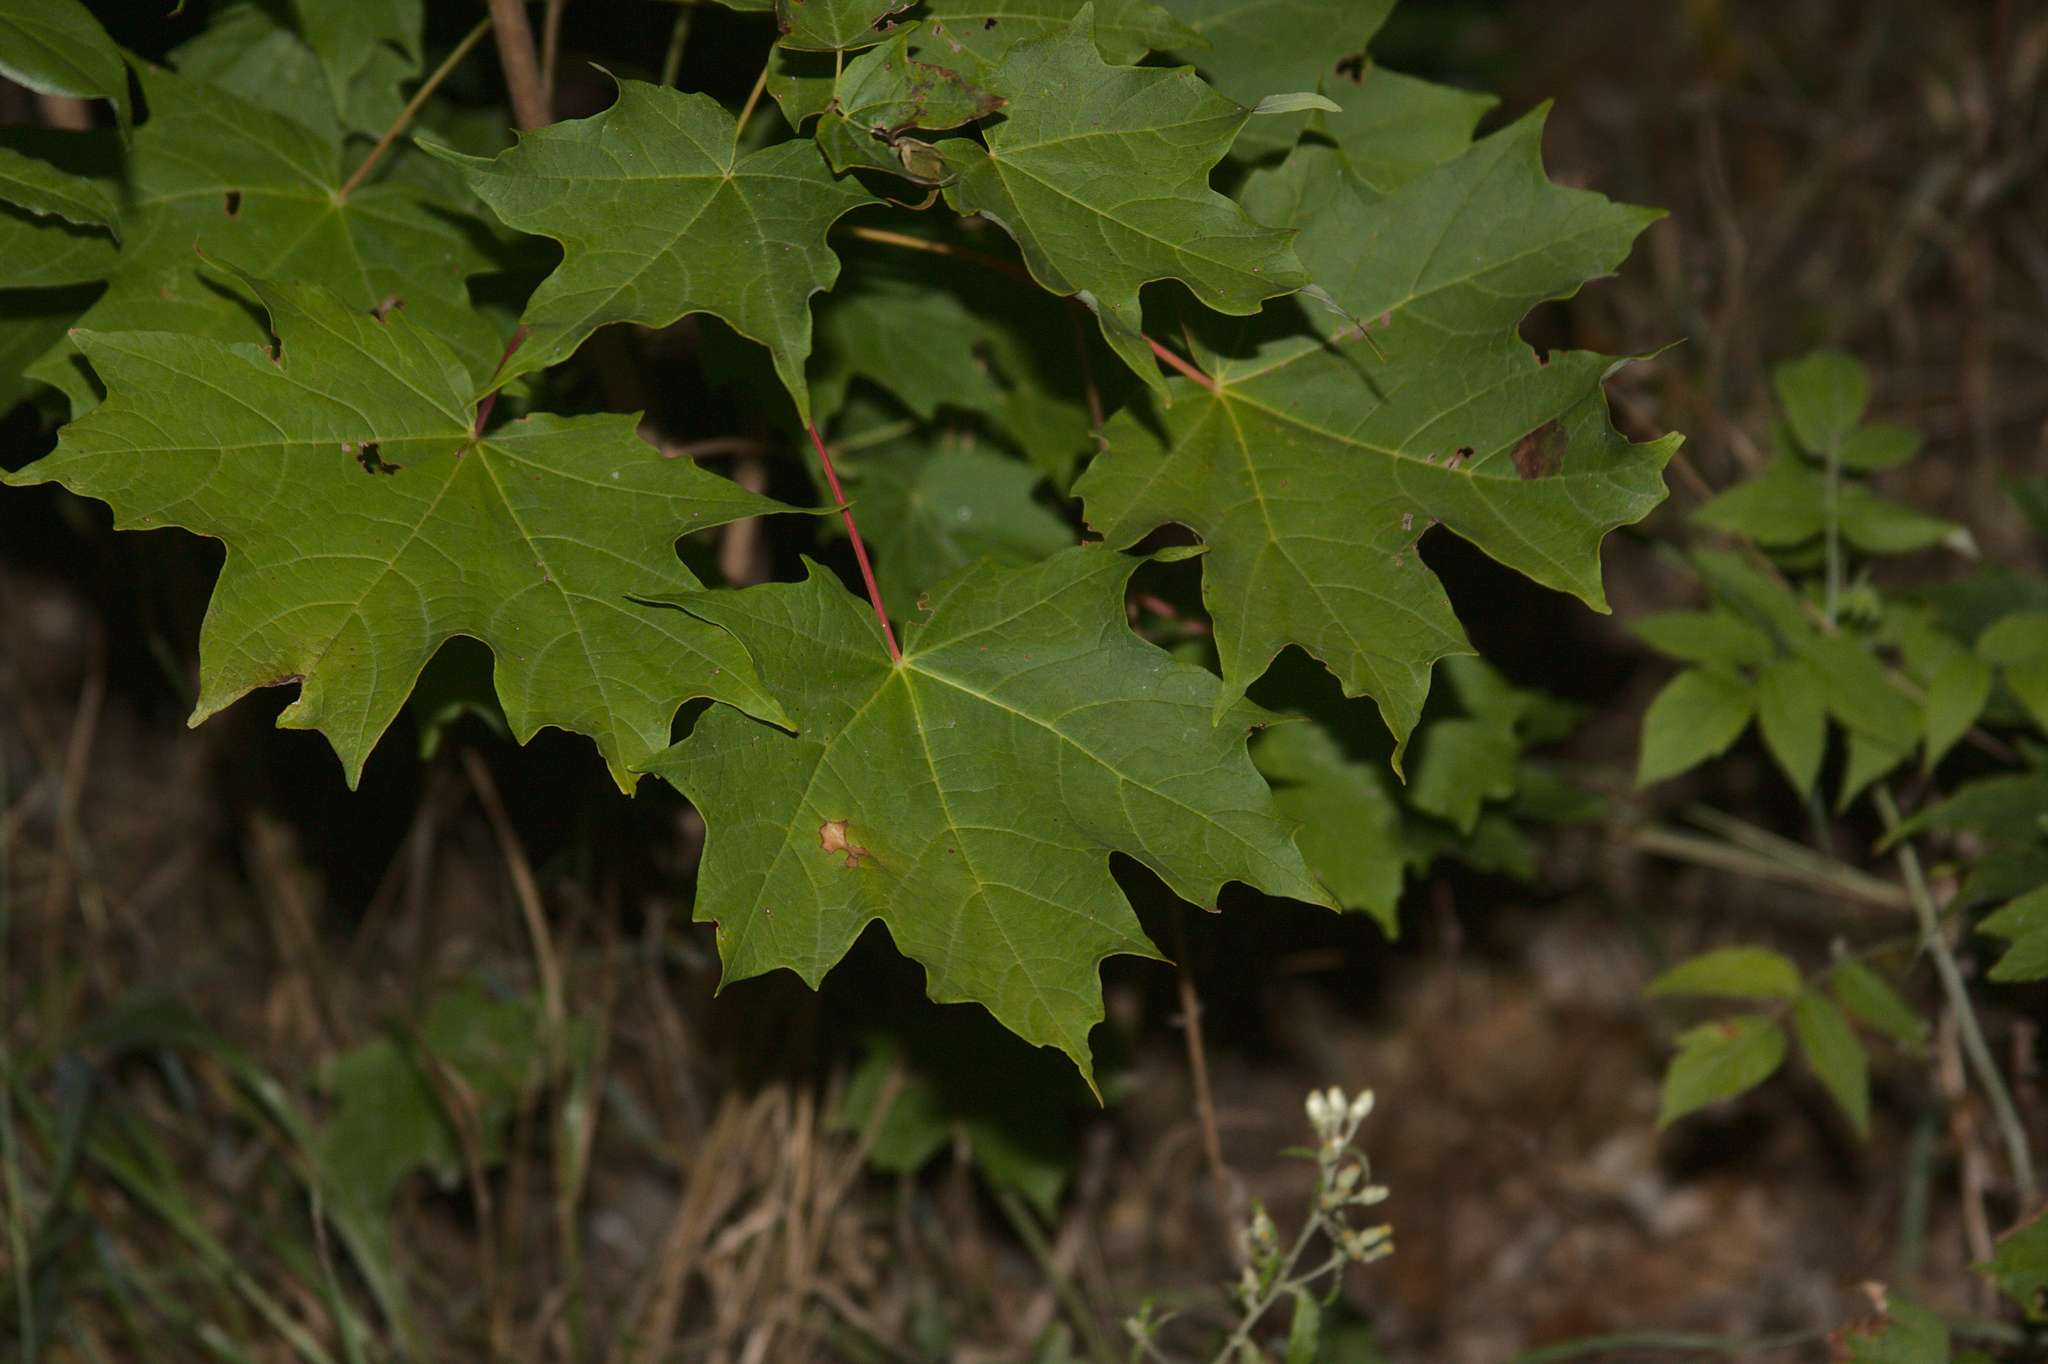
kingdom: Plantae
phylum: Tracheophyta
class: Magnoliopsida
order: Sapindales
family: Sapindaceae
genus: Acer
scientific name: Acer saccharum
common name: Sugar maple
